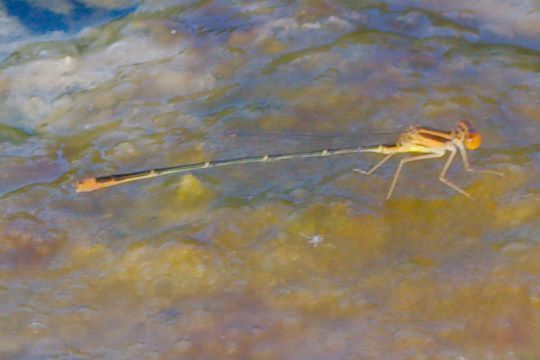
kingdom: Animalia
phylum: Arthropoda
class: Insecta
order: Odonata
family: Coenagrionidae
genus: Enallagma
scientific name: Enallagma pollutum
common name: Florida bluet
